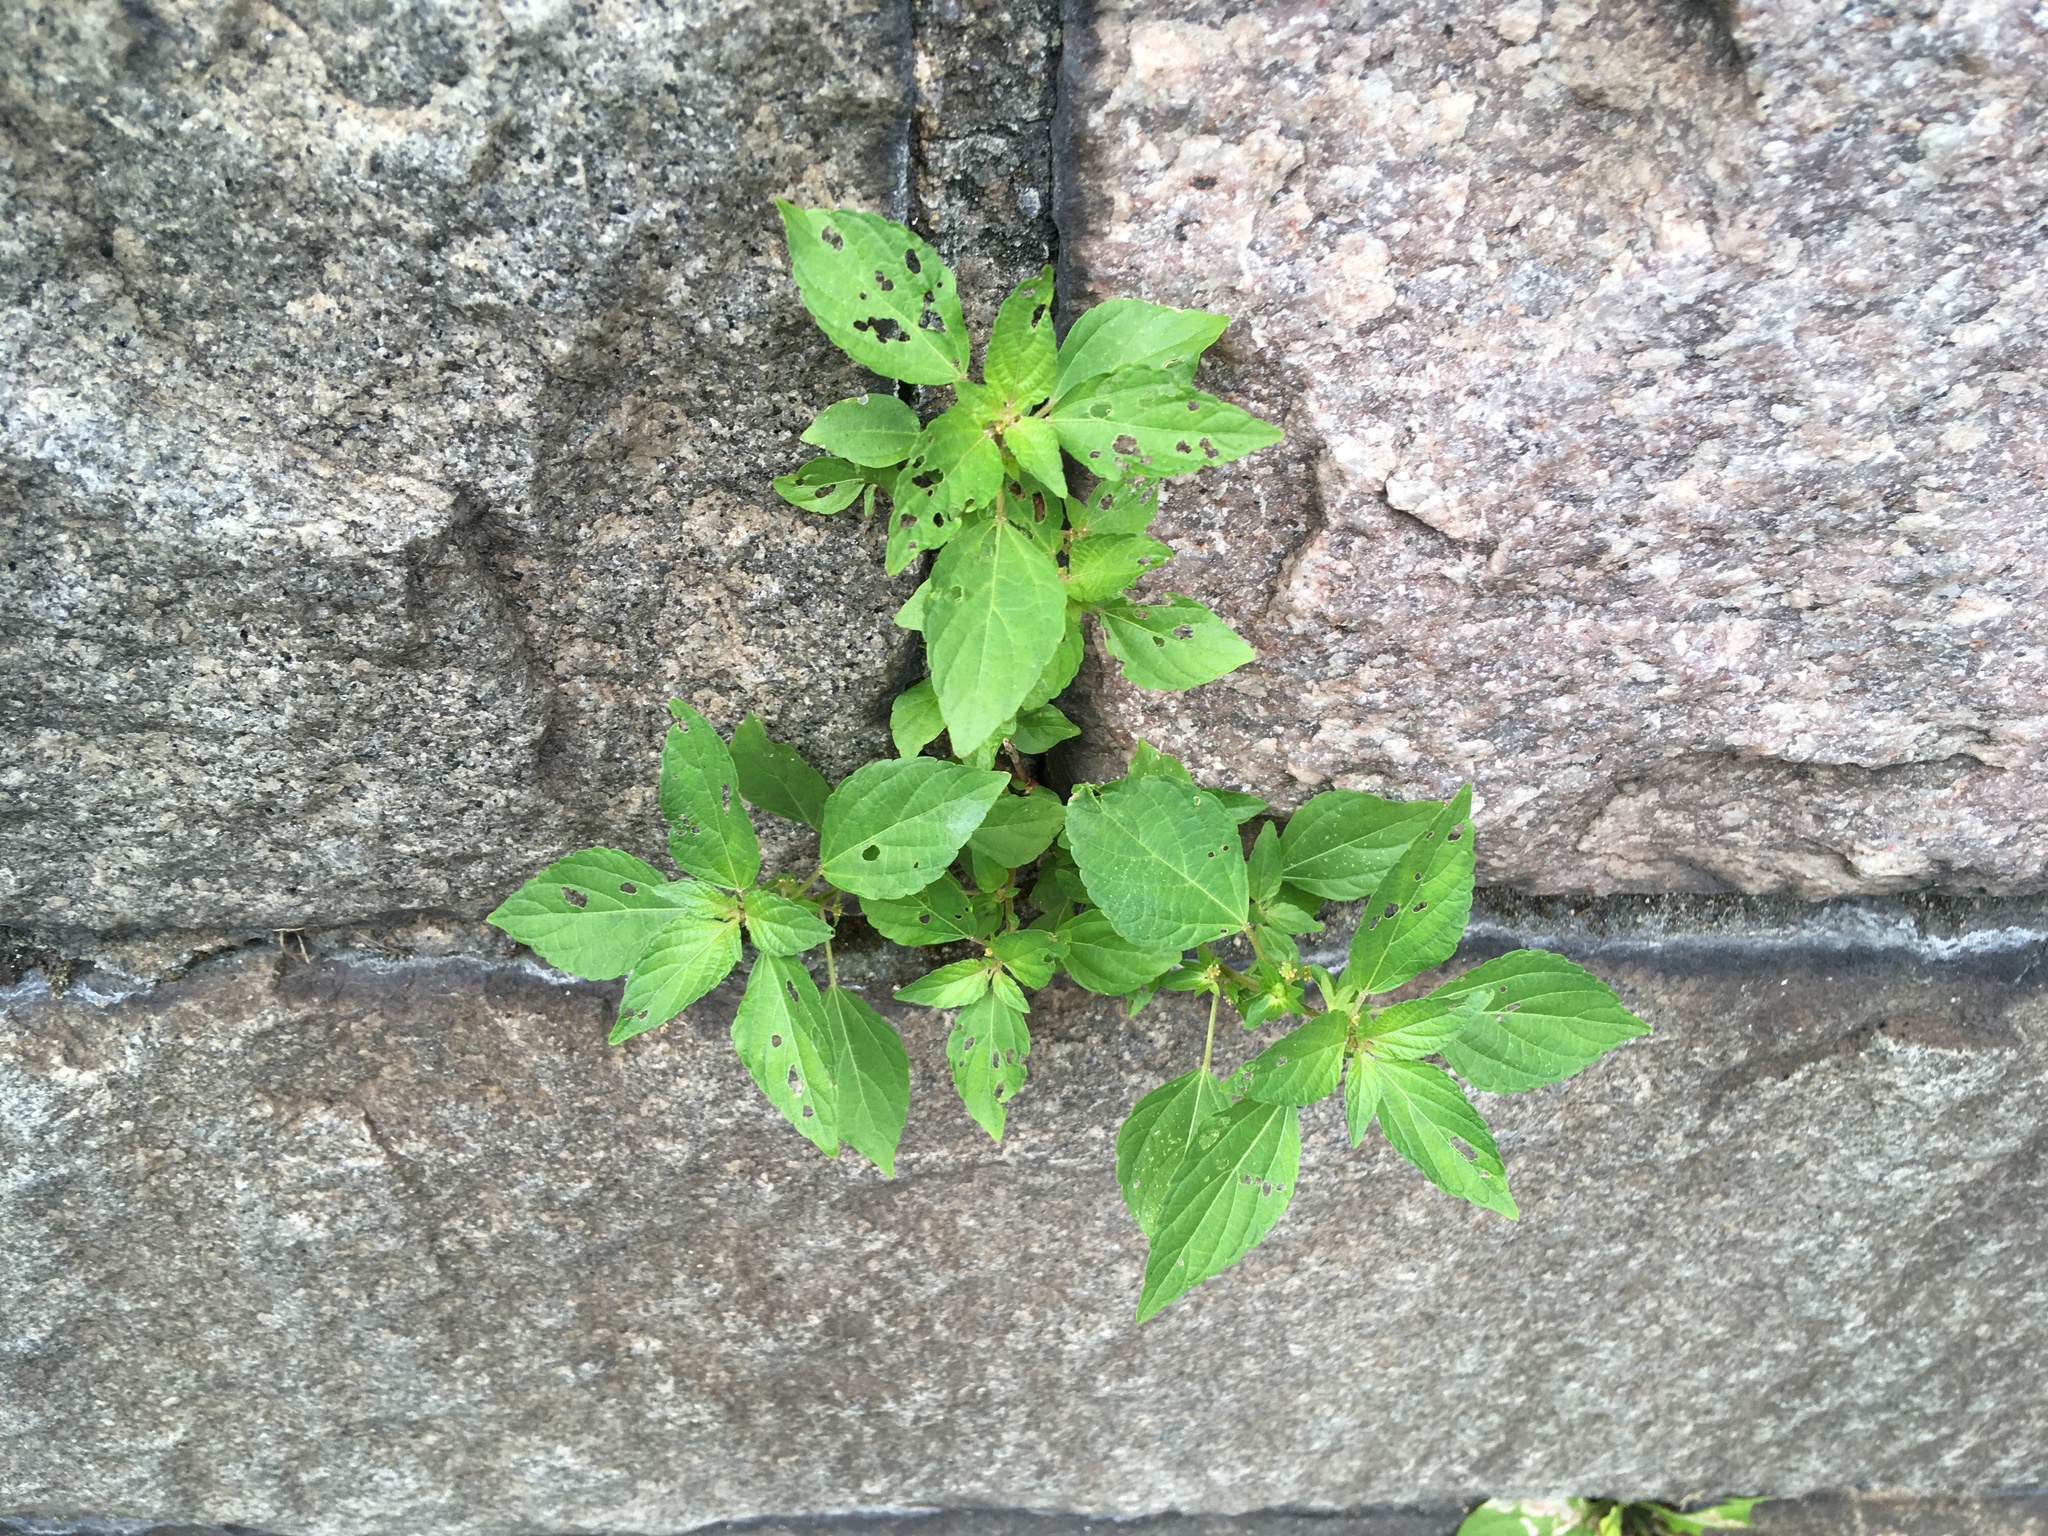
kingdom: Plantae
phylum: Tracheophyta
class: Magnoliopsida
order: Malpighiales
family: Euphorbiaceae
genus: Acalypha
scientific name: Acalypha rhomboidea
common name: Rhombic copperleaf
